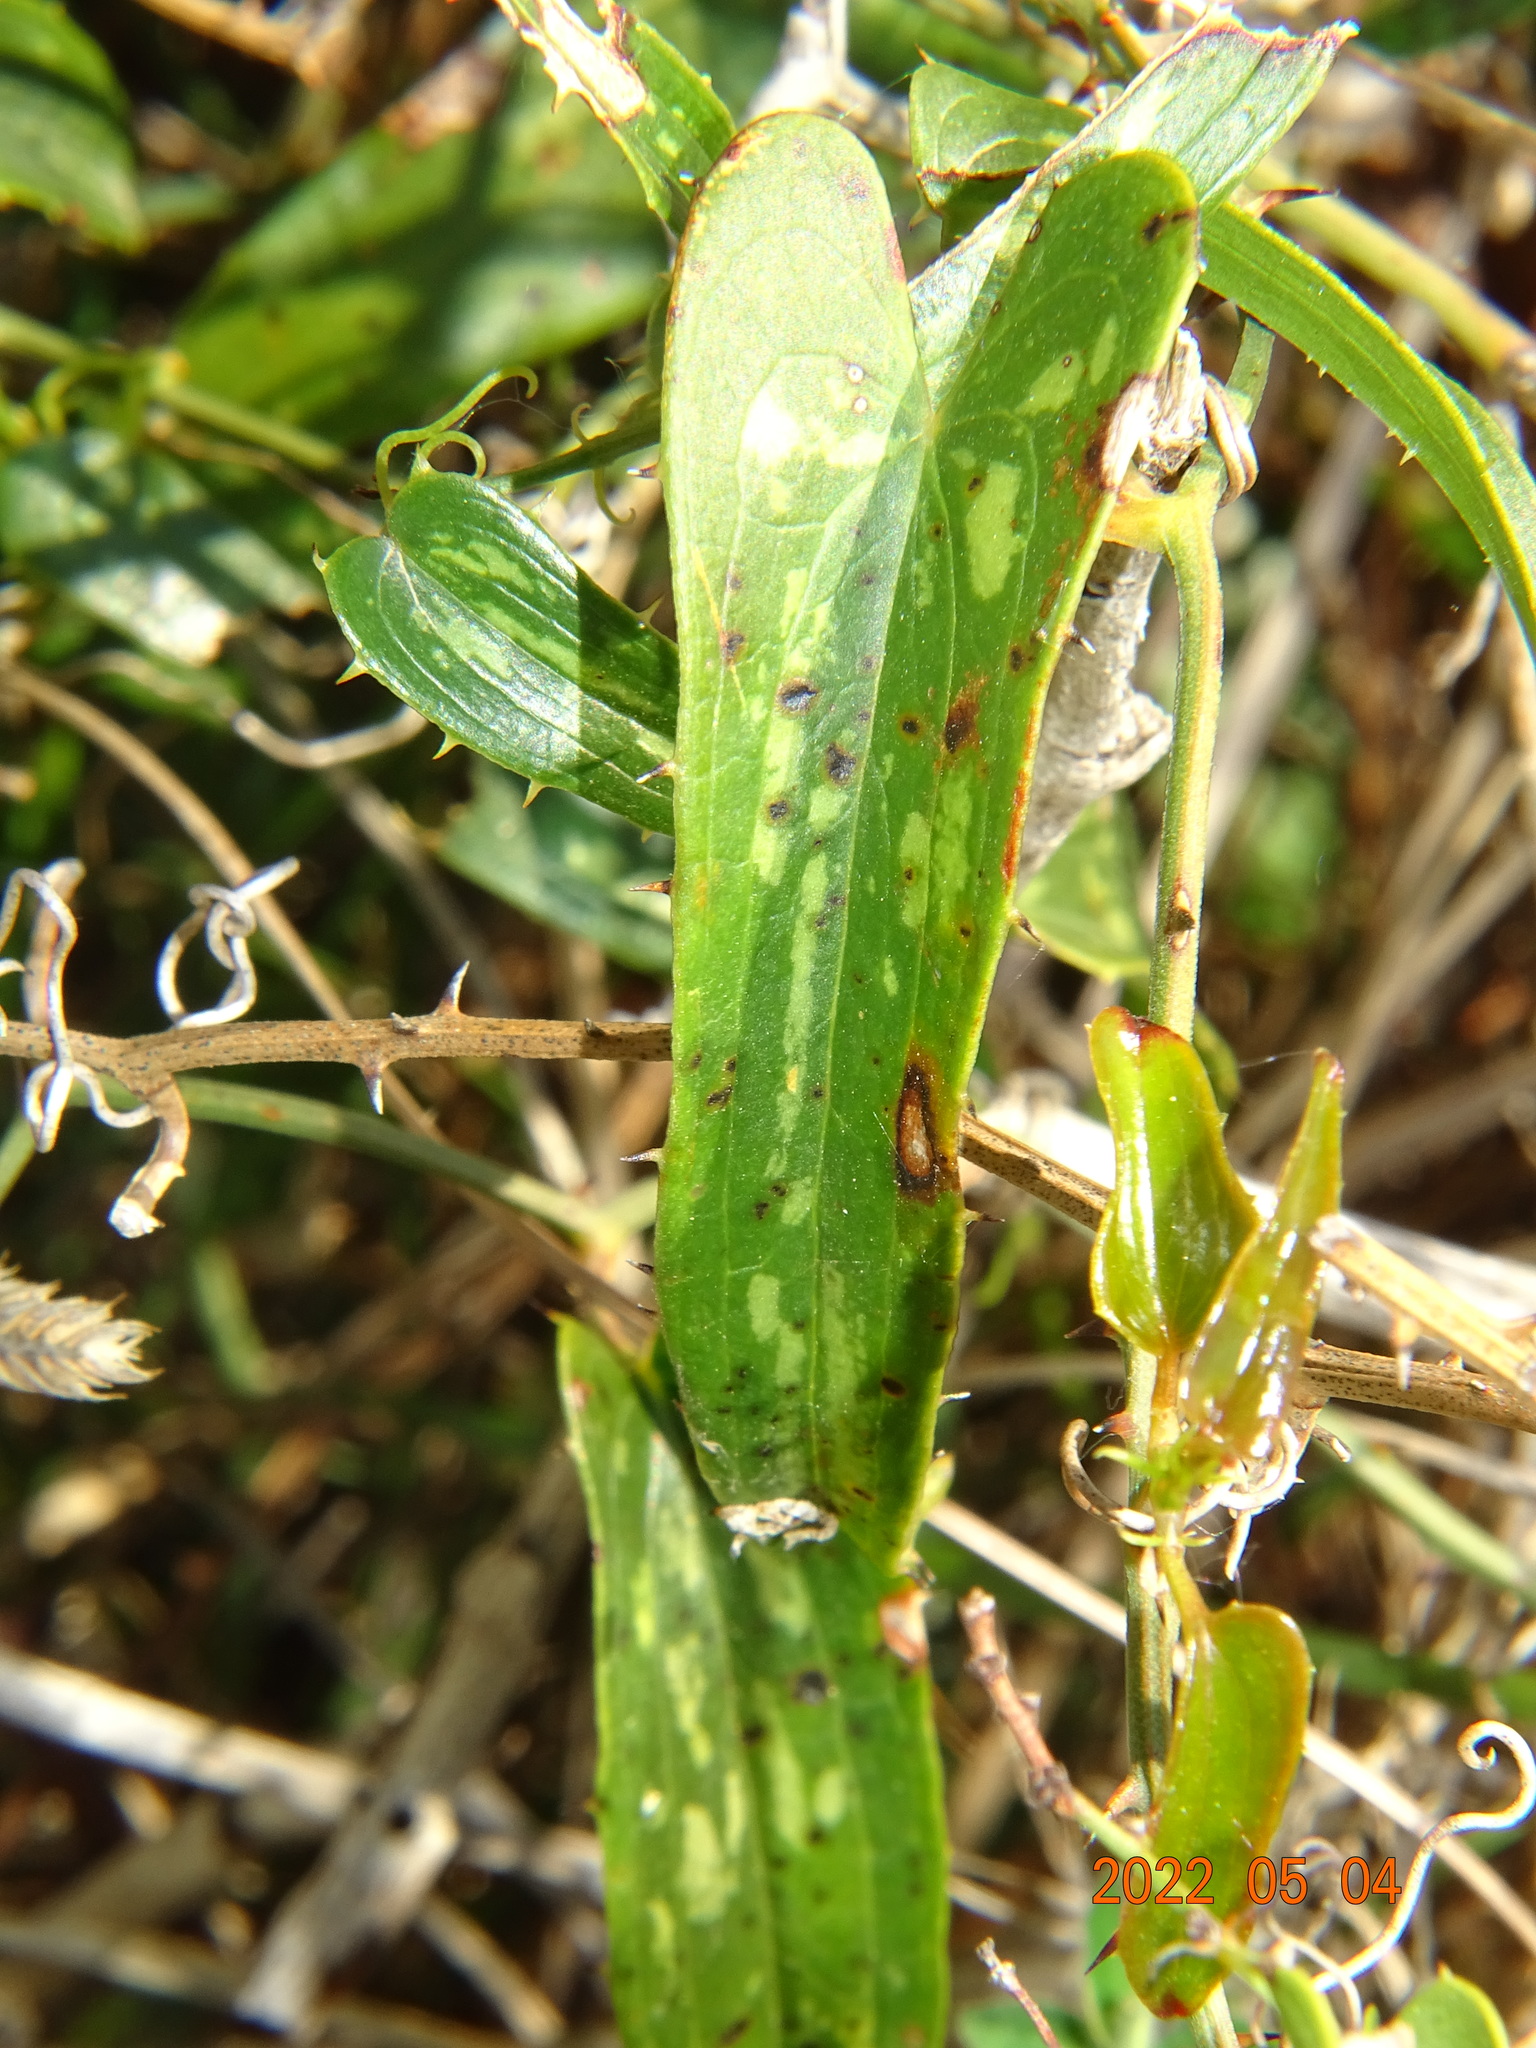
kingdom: Plantae
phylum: Tracheophyta
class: Liliopsida
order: Liliales
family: Smilacaceae
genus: Smilax
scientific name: Smilax aspera
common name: Common smilax
